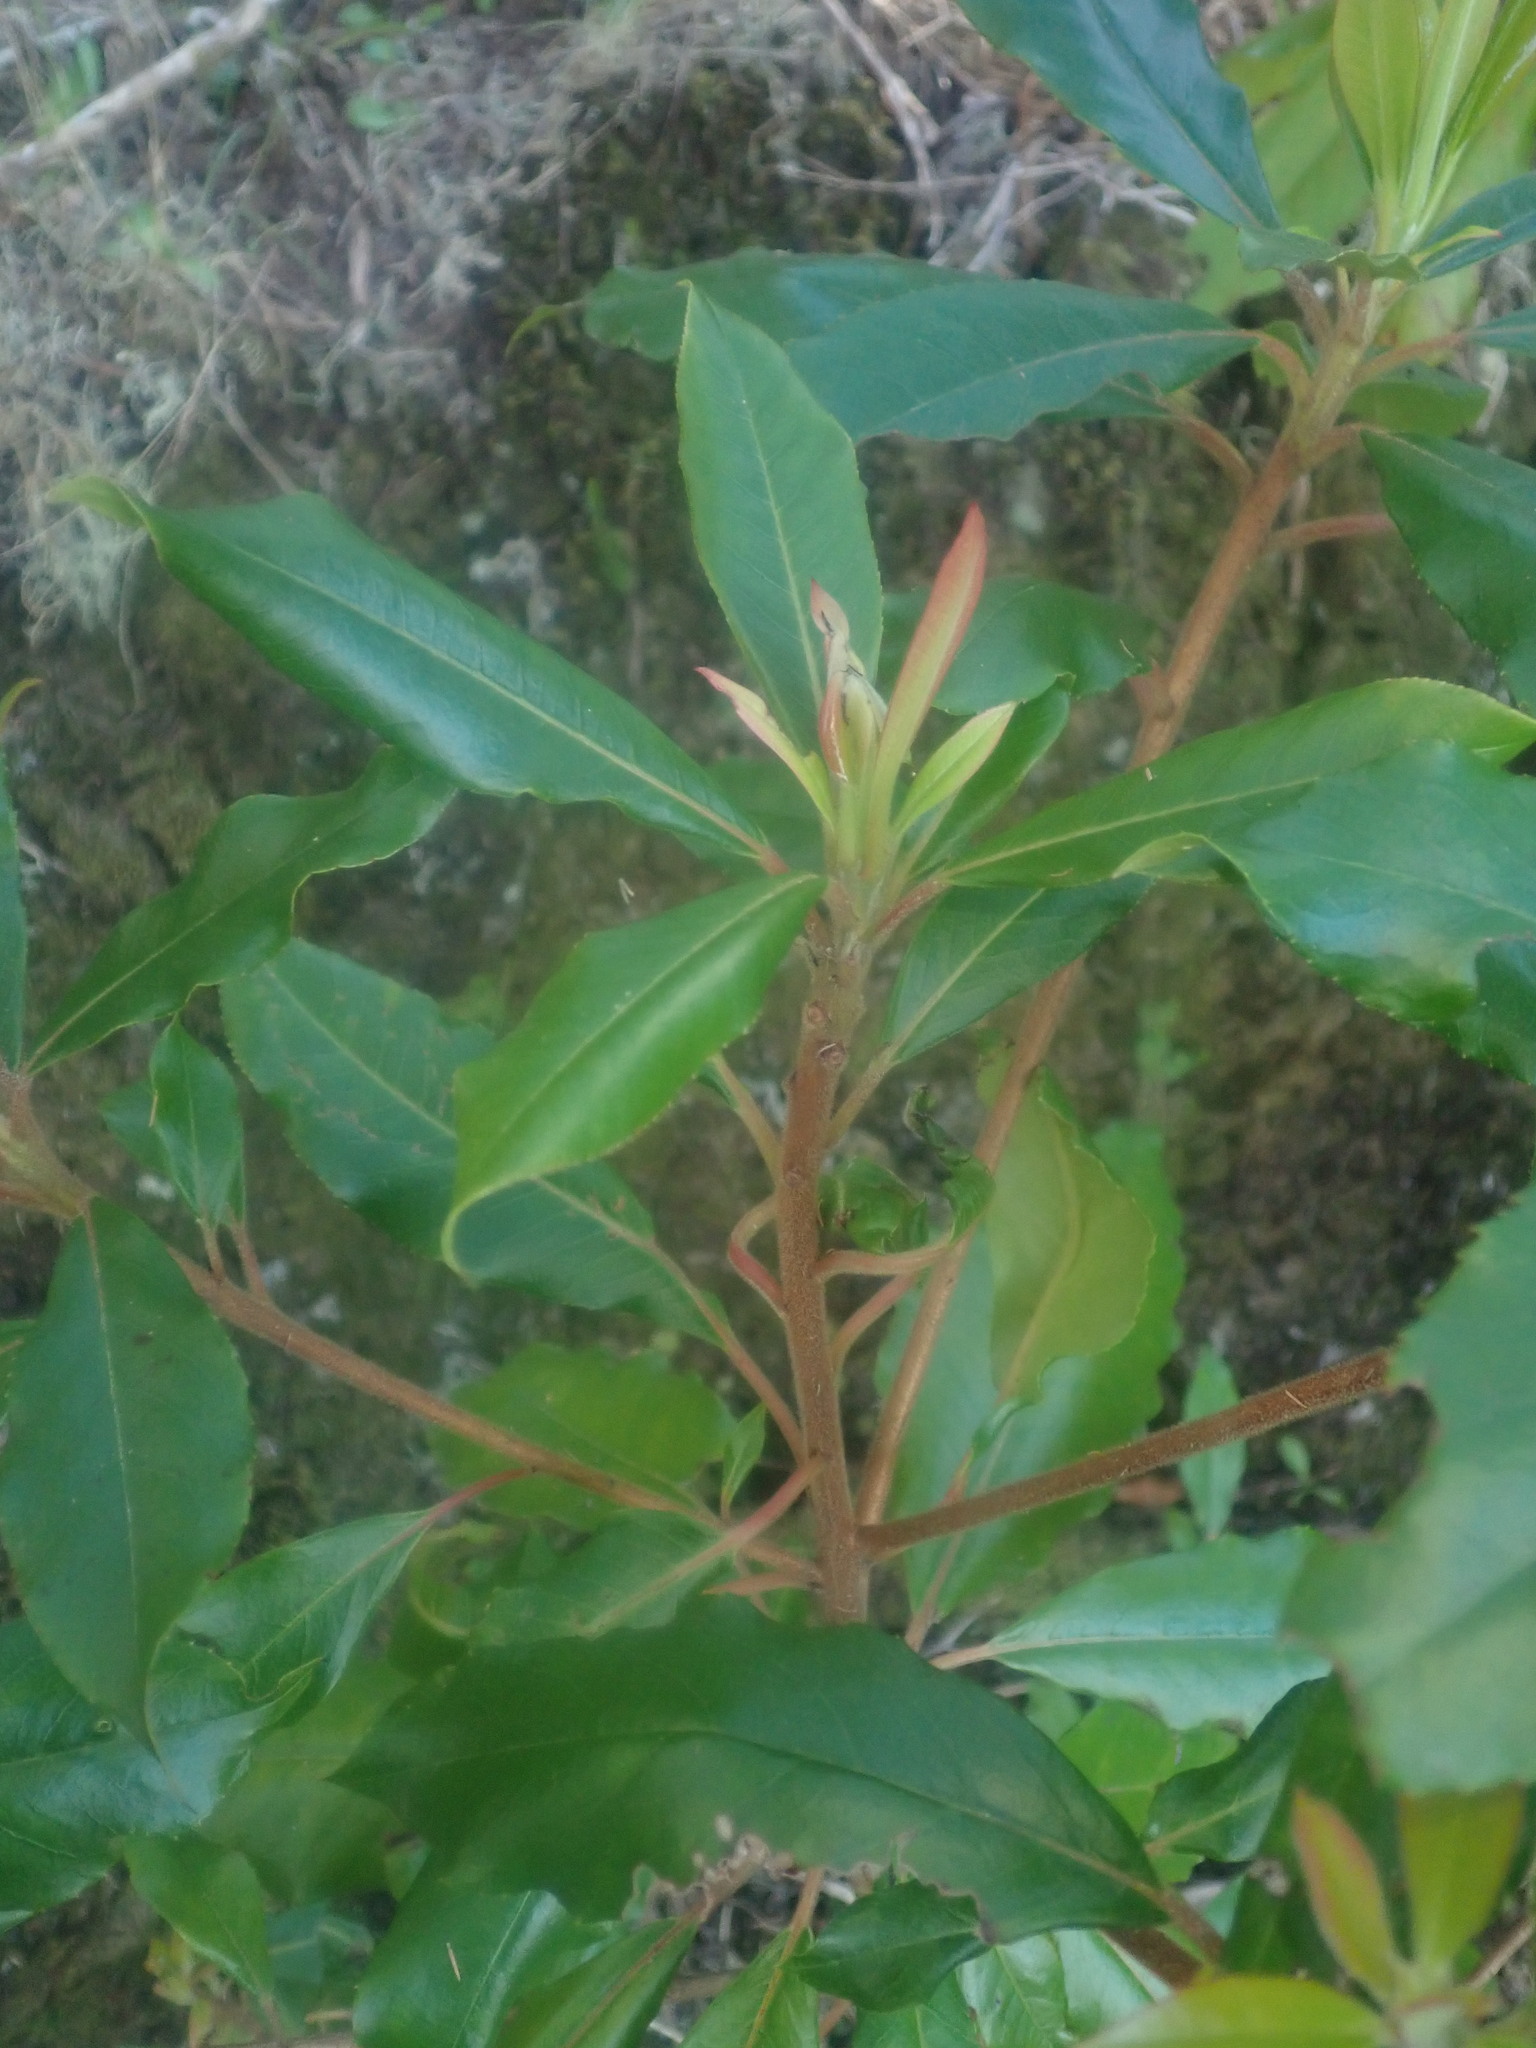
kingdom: Plantae
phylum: Tracheophyta
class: Magnoliopsida
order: Ericales
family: Clethraceae
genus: Clethra
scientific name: Clethra arborea
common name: Lily-of-the-valley-tree
